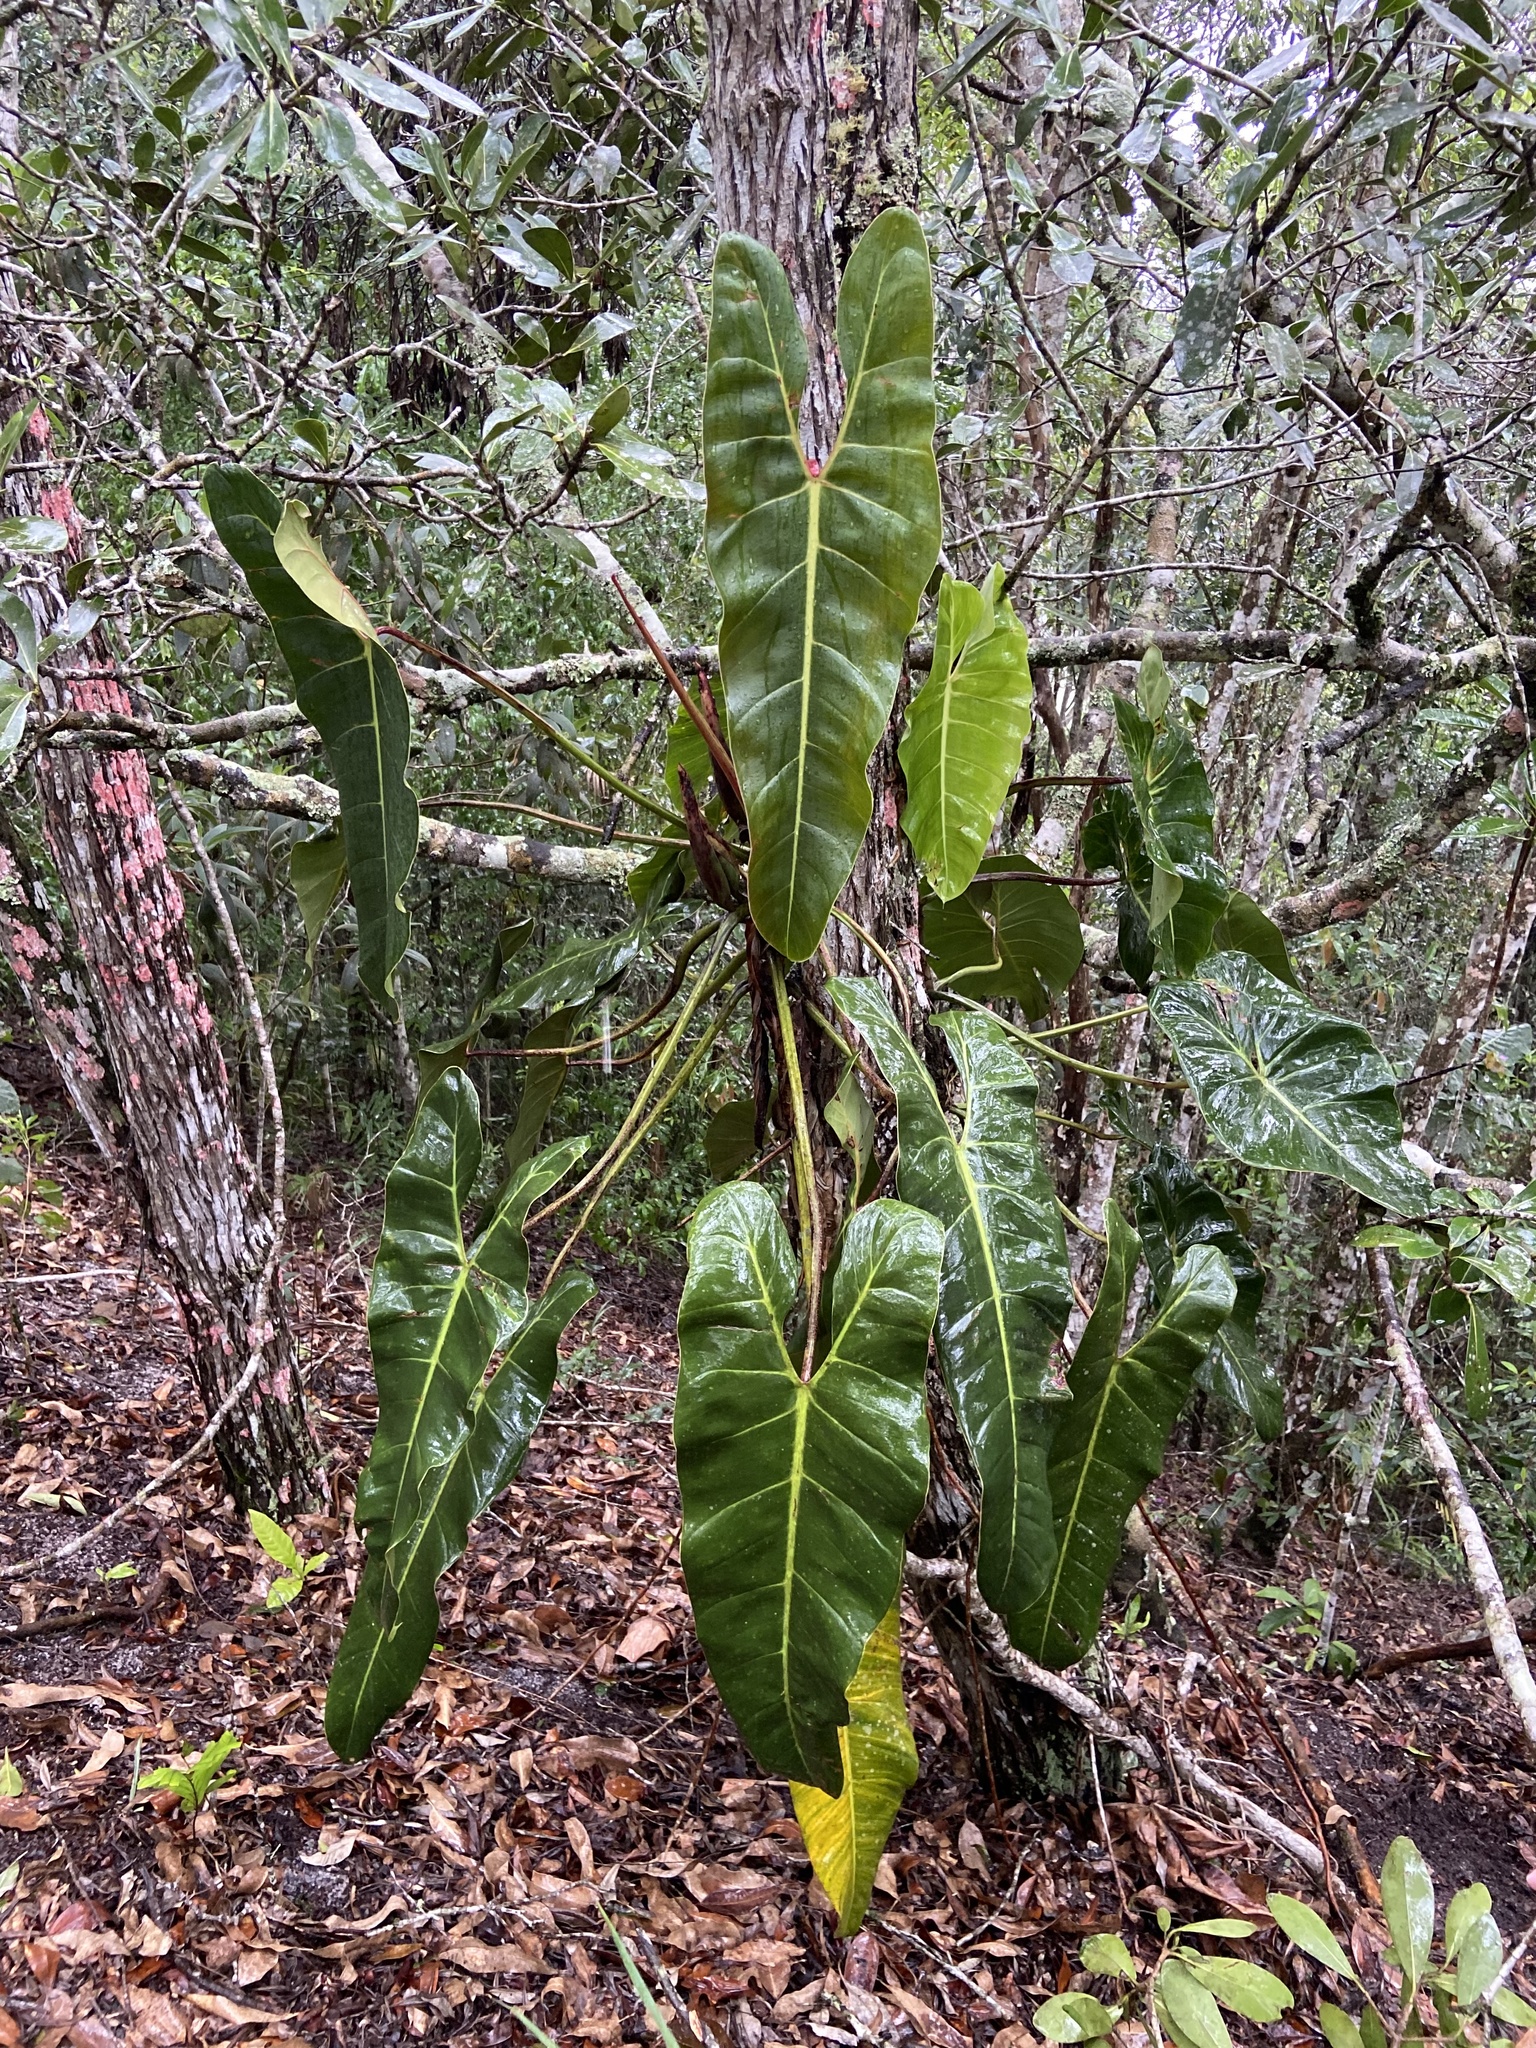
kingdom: Plantae
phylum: Tracheophyta
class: Liliopsida
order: Alismatales
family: Araceae
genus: Philodendron
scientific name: Philodendron tenuispadix
